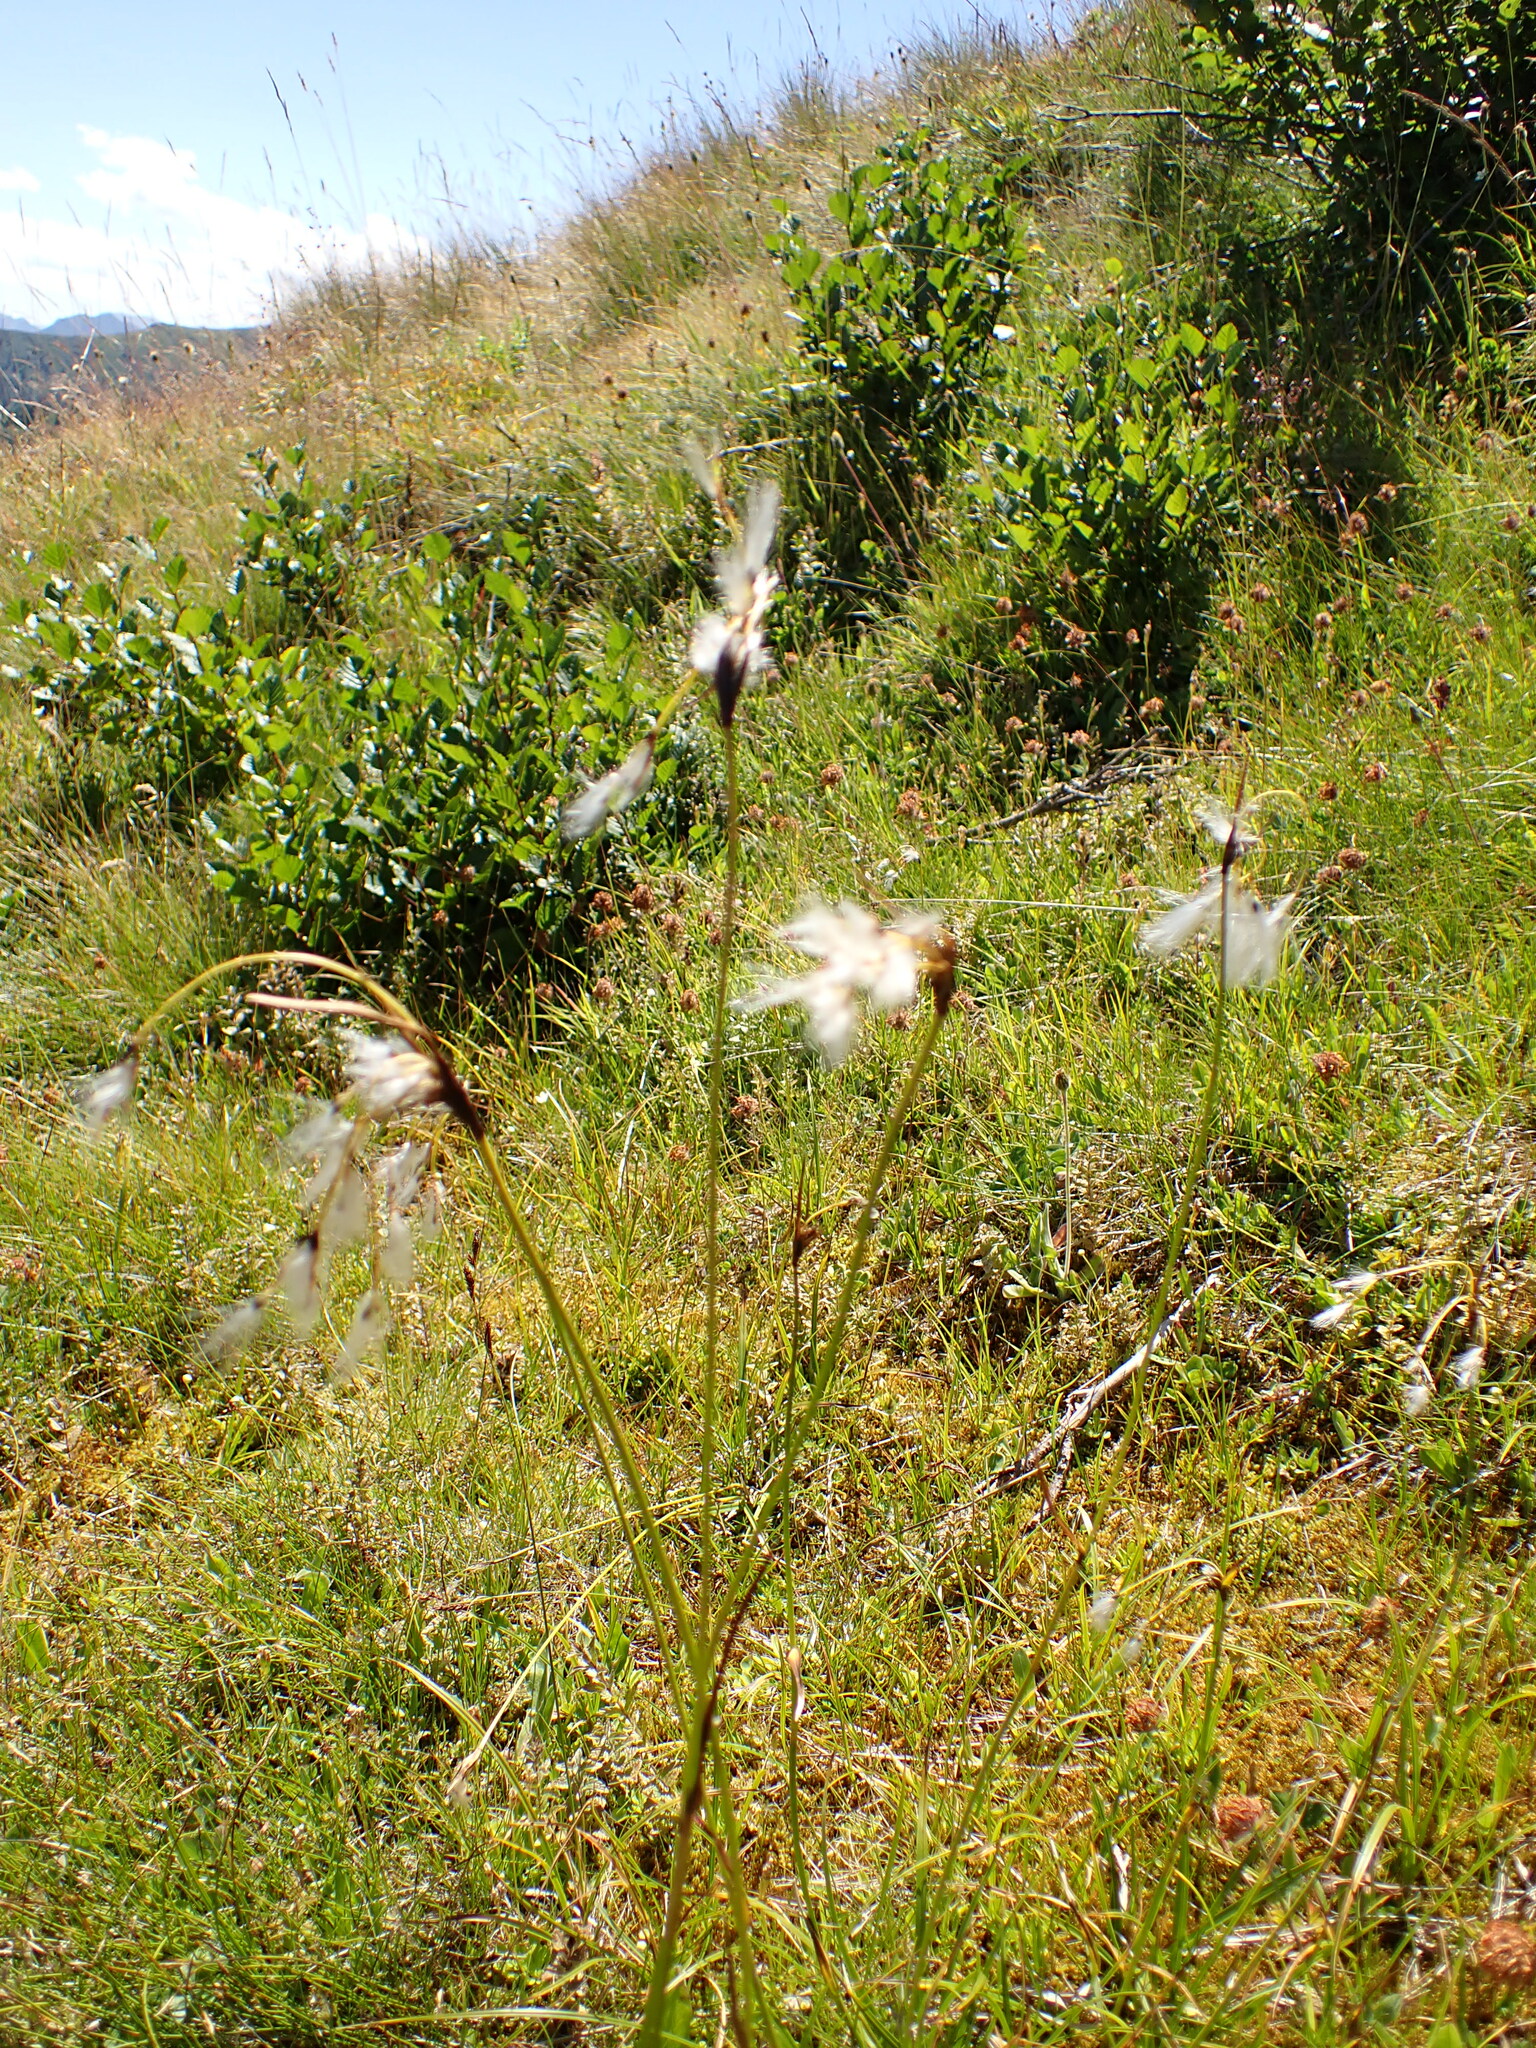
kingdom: Plantae
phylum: Tracheophyta
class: Liliopsida
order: Poales
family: Cyperaceae
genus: Eriophorum
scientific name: Eriophorum angustifolium
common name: Common cottongrass
